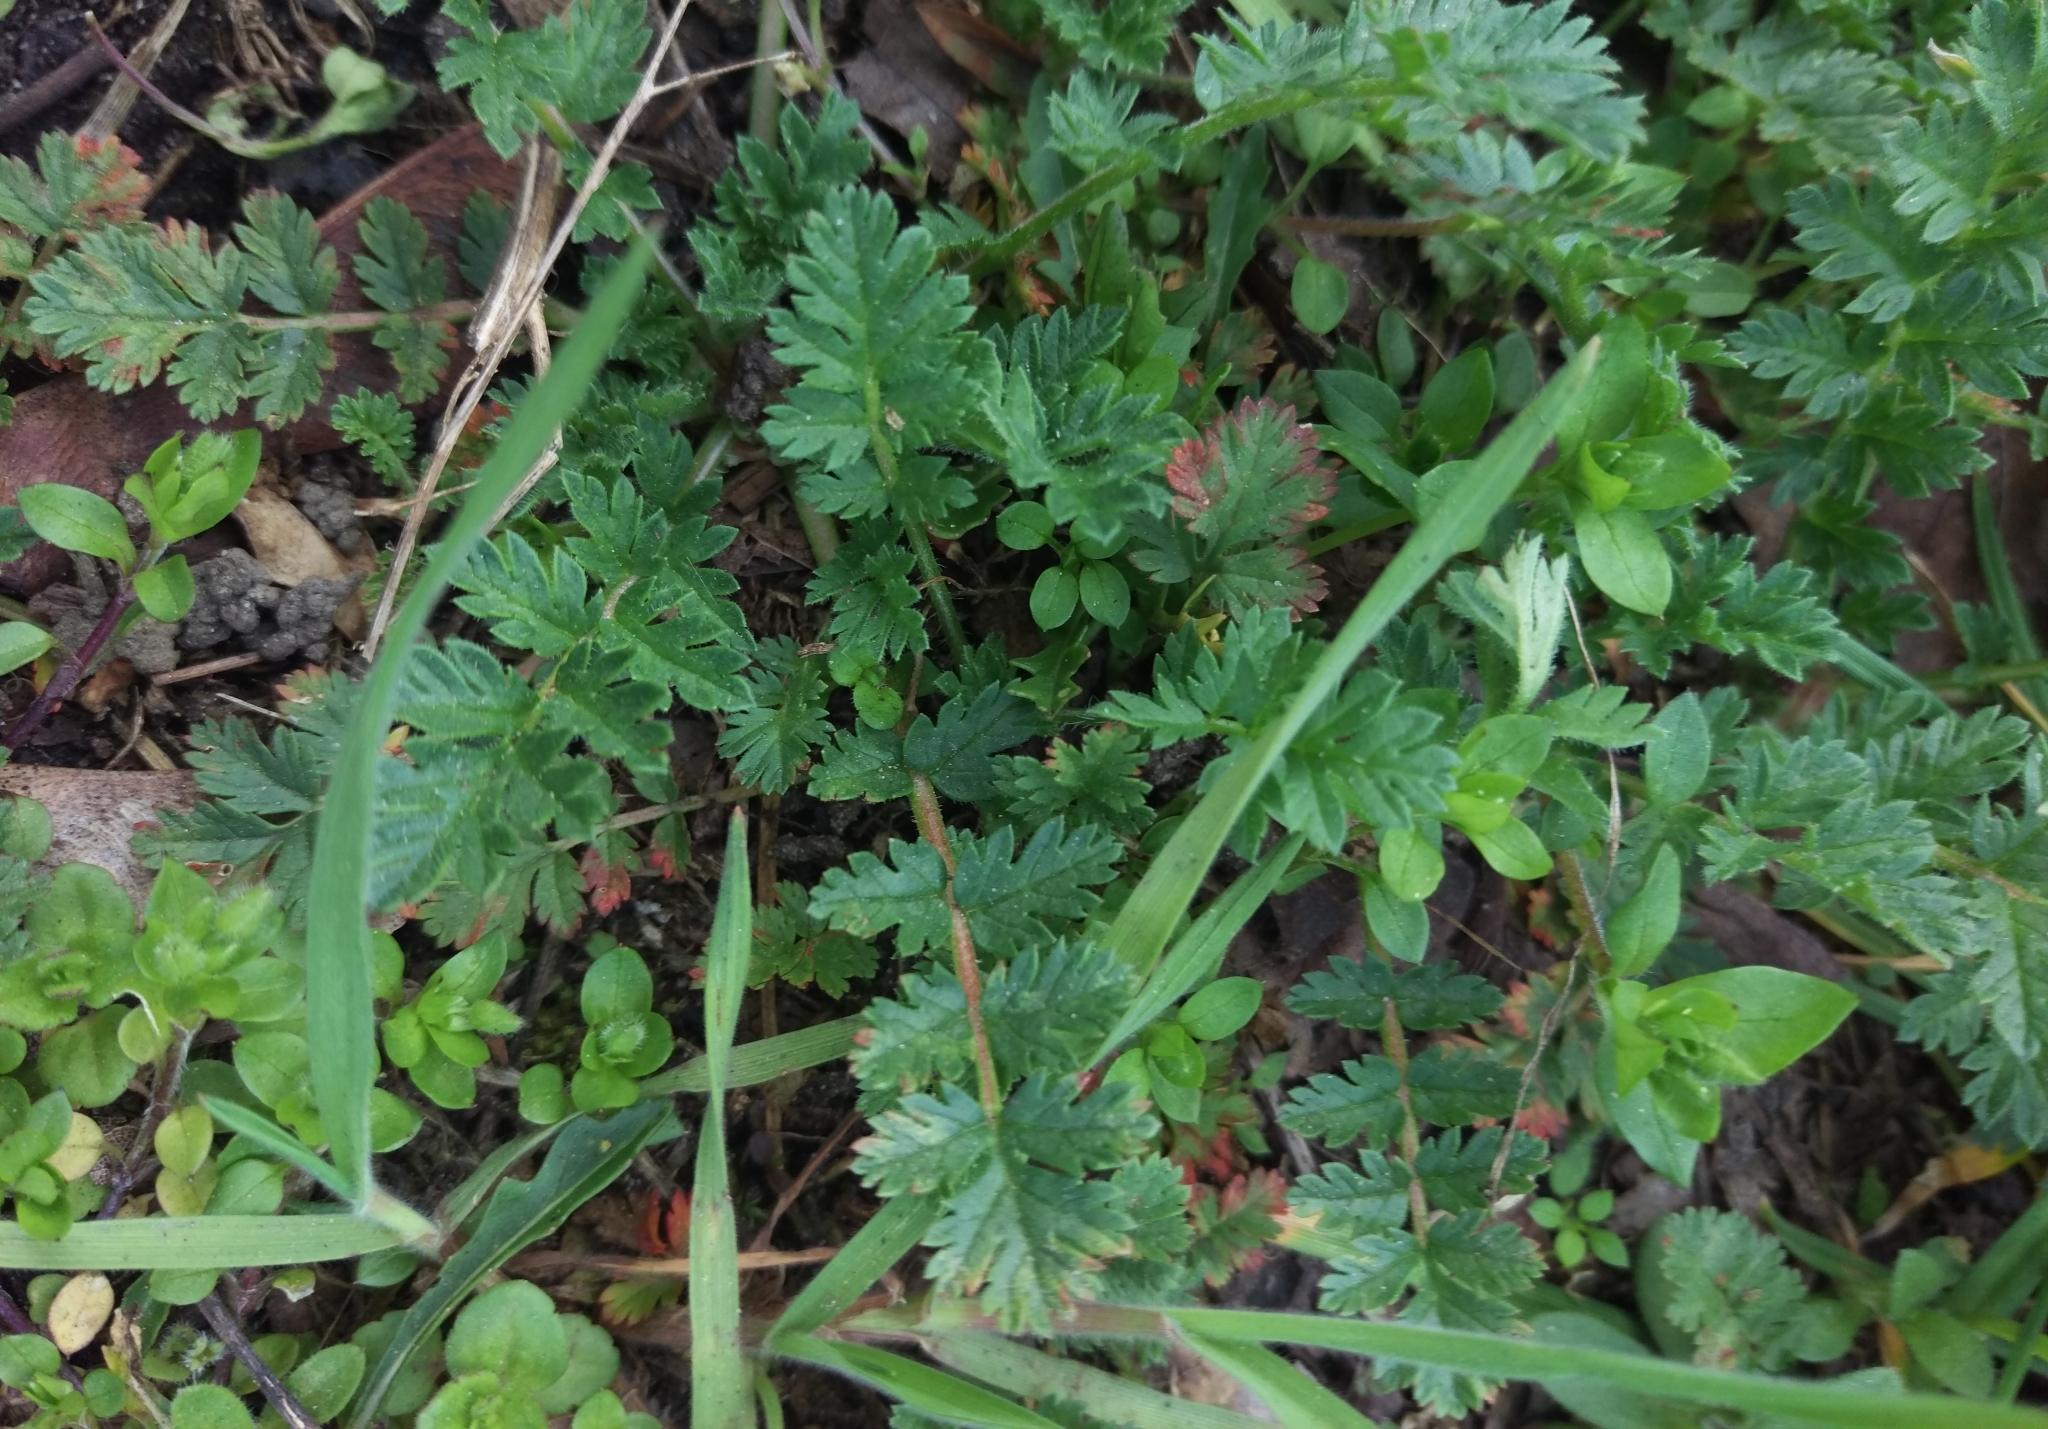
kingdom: Plantae
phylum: Tracheophyta
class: Magnoliopsida
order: Geraniales
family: Geraniaceae
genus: Erodium
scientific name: Erodium cicutarium
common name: Common stork's-bill
